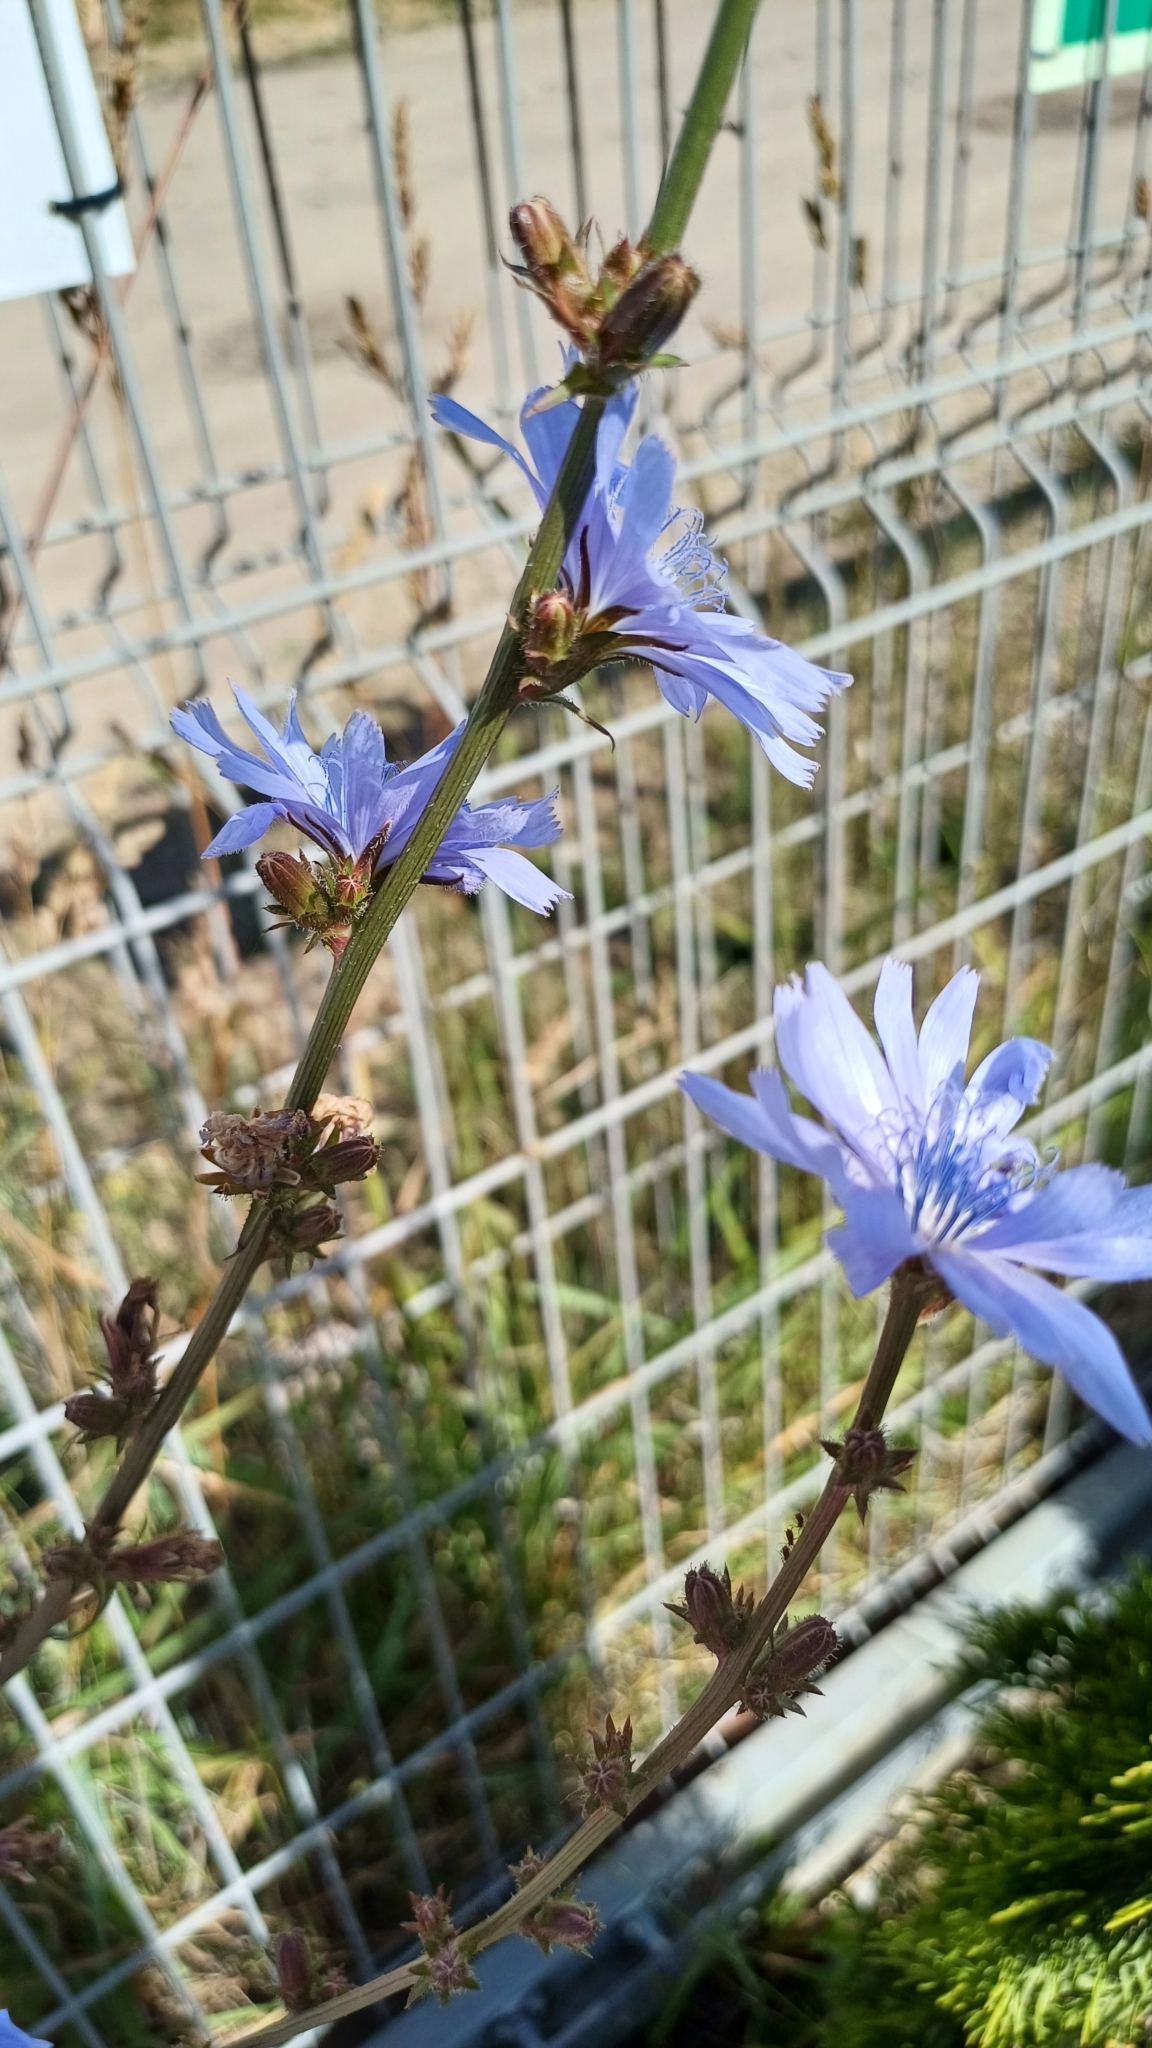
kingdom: Plantae
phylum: Tracheophyta
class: Magnoliopsida
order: Asterales
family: Asteraceae
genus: Cichorium
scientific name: Cichorium intybus
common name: Chicory
